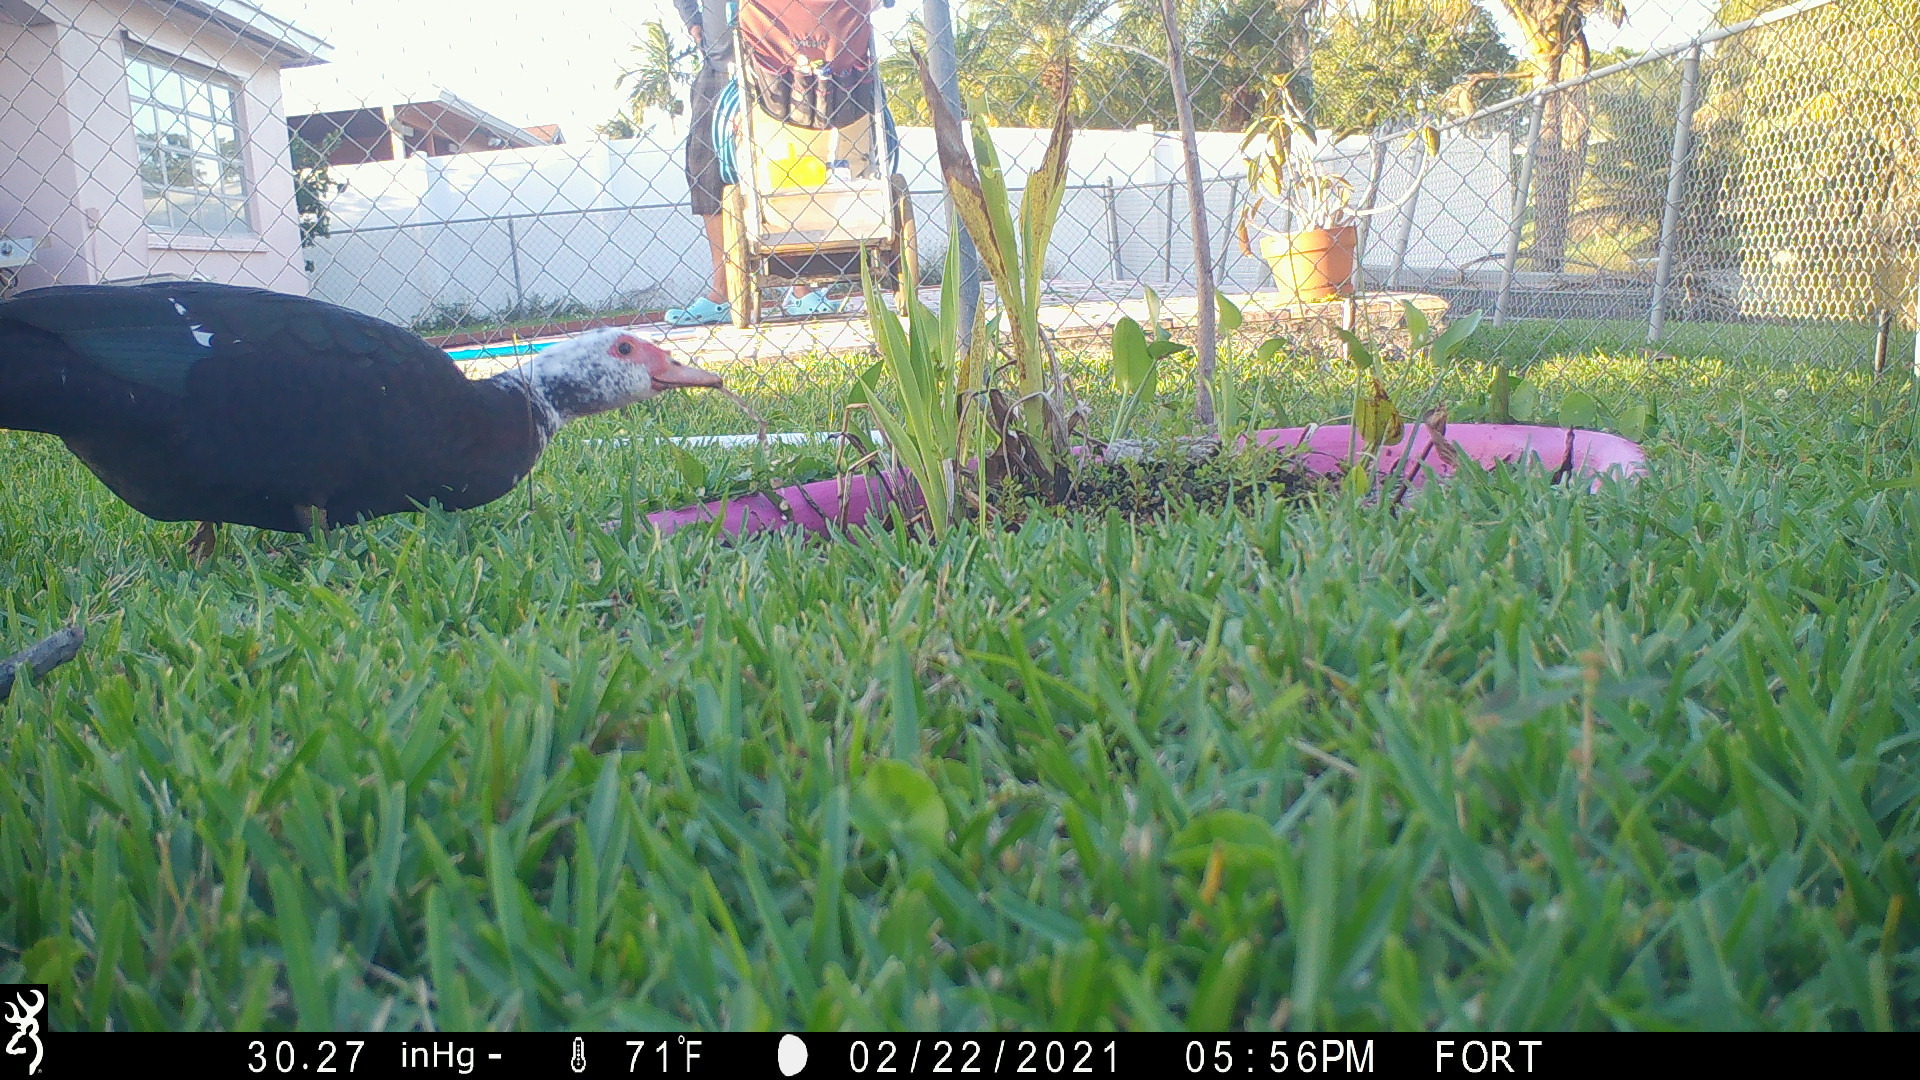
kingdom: Animalia
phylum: Chordata
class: Aves
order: Anseriformes
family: Anatidae
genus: Cairina
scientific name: Cairina moschata
